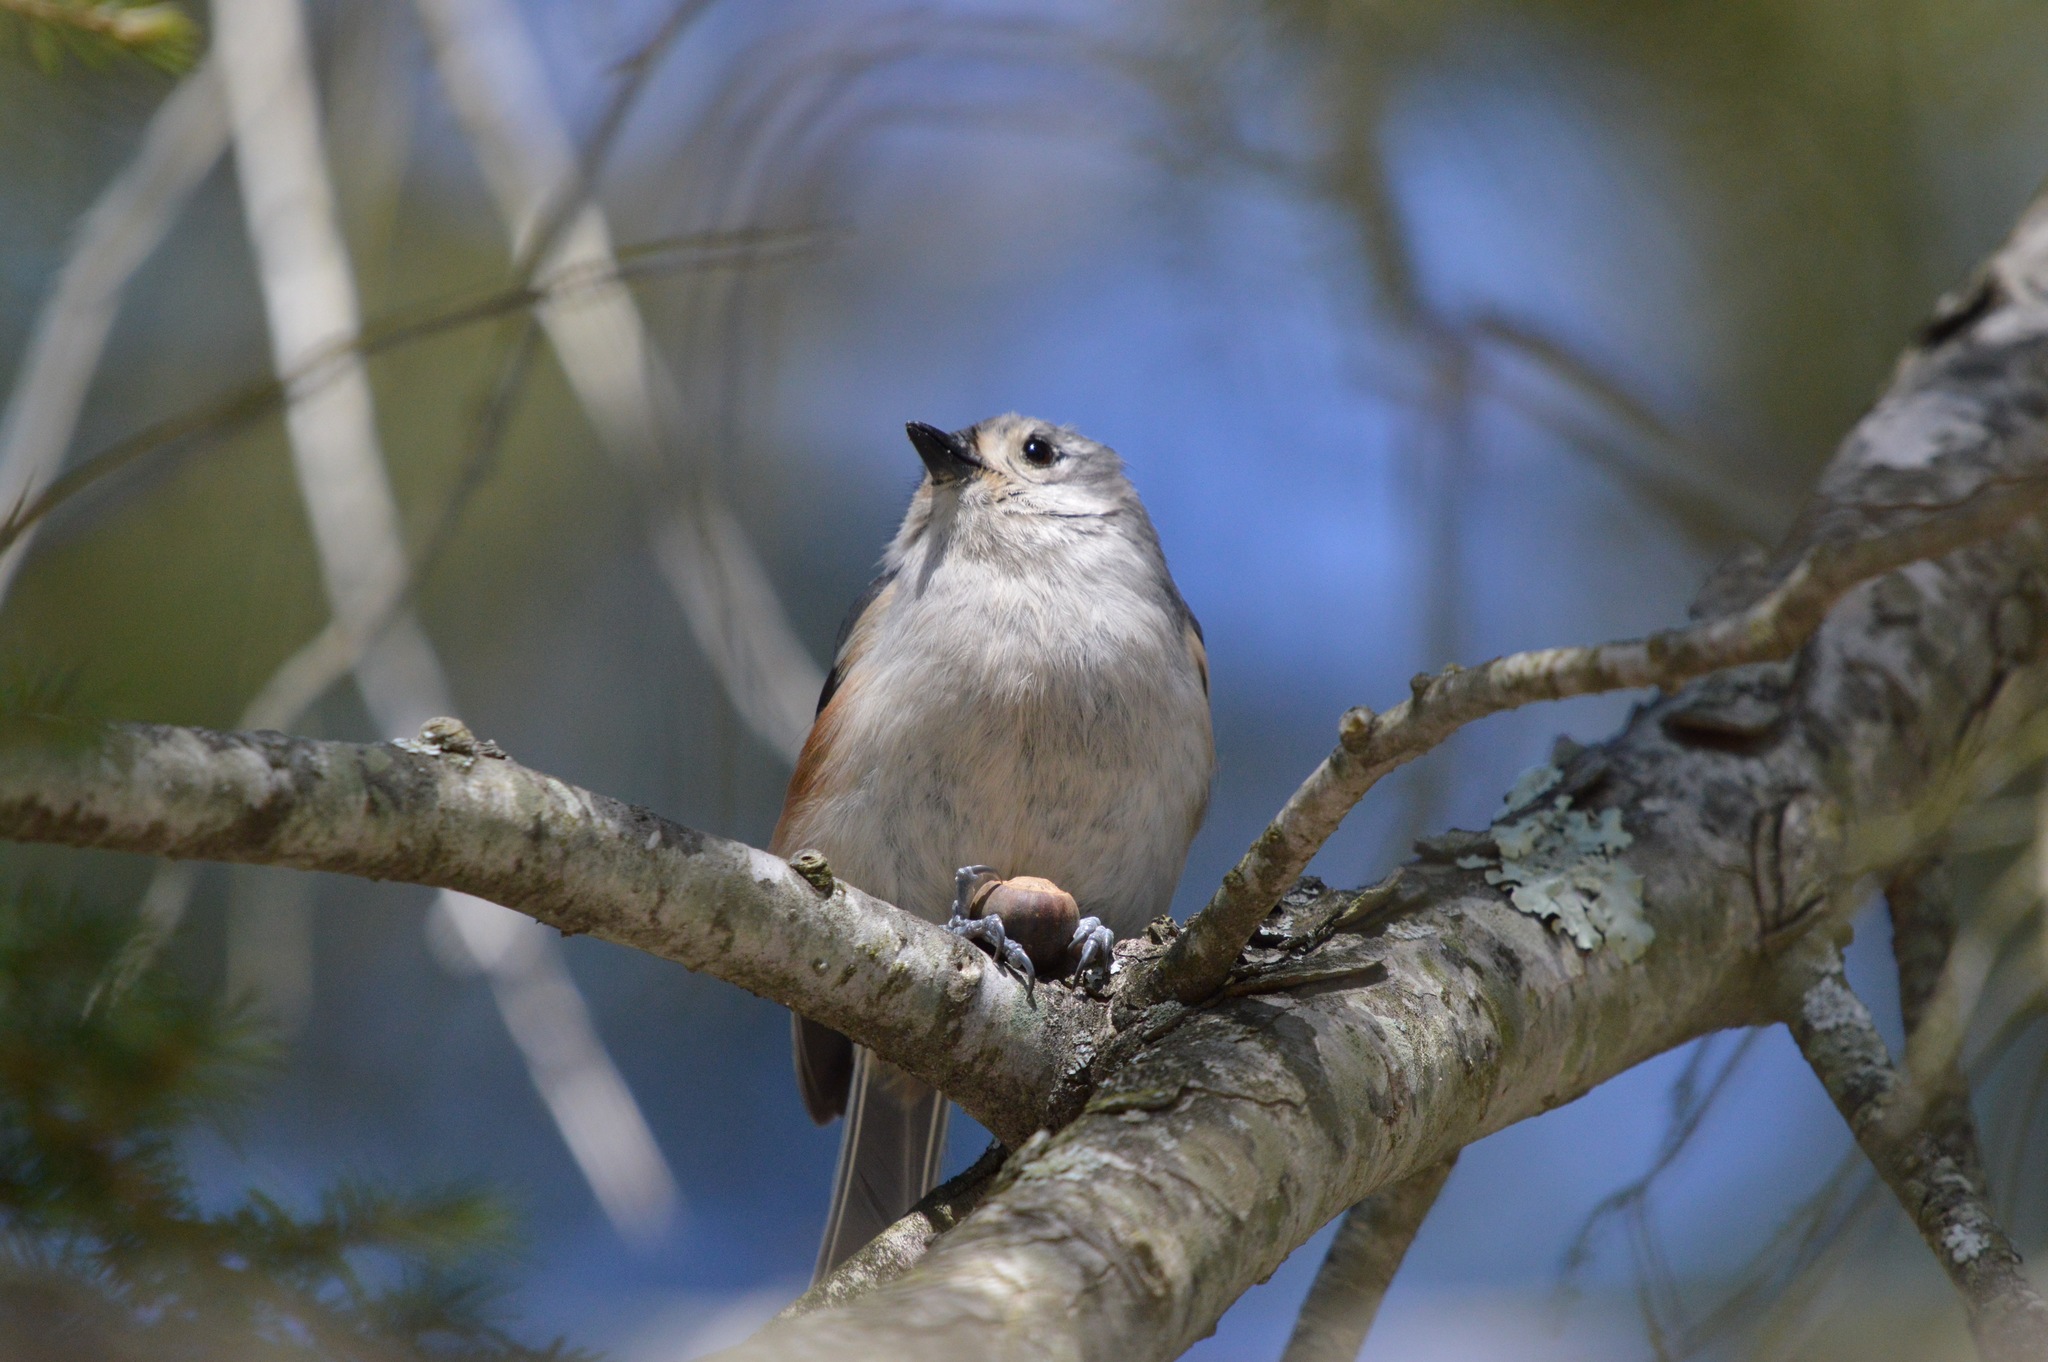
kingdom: Animalia
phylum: Chordata
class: Aves
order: Passeriformes
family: Paridae
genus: Baeolophus
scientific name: Baeolophus bicolor
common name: Tufted titmouse
